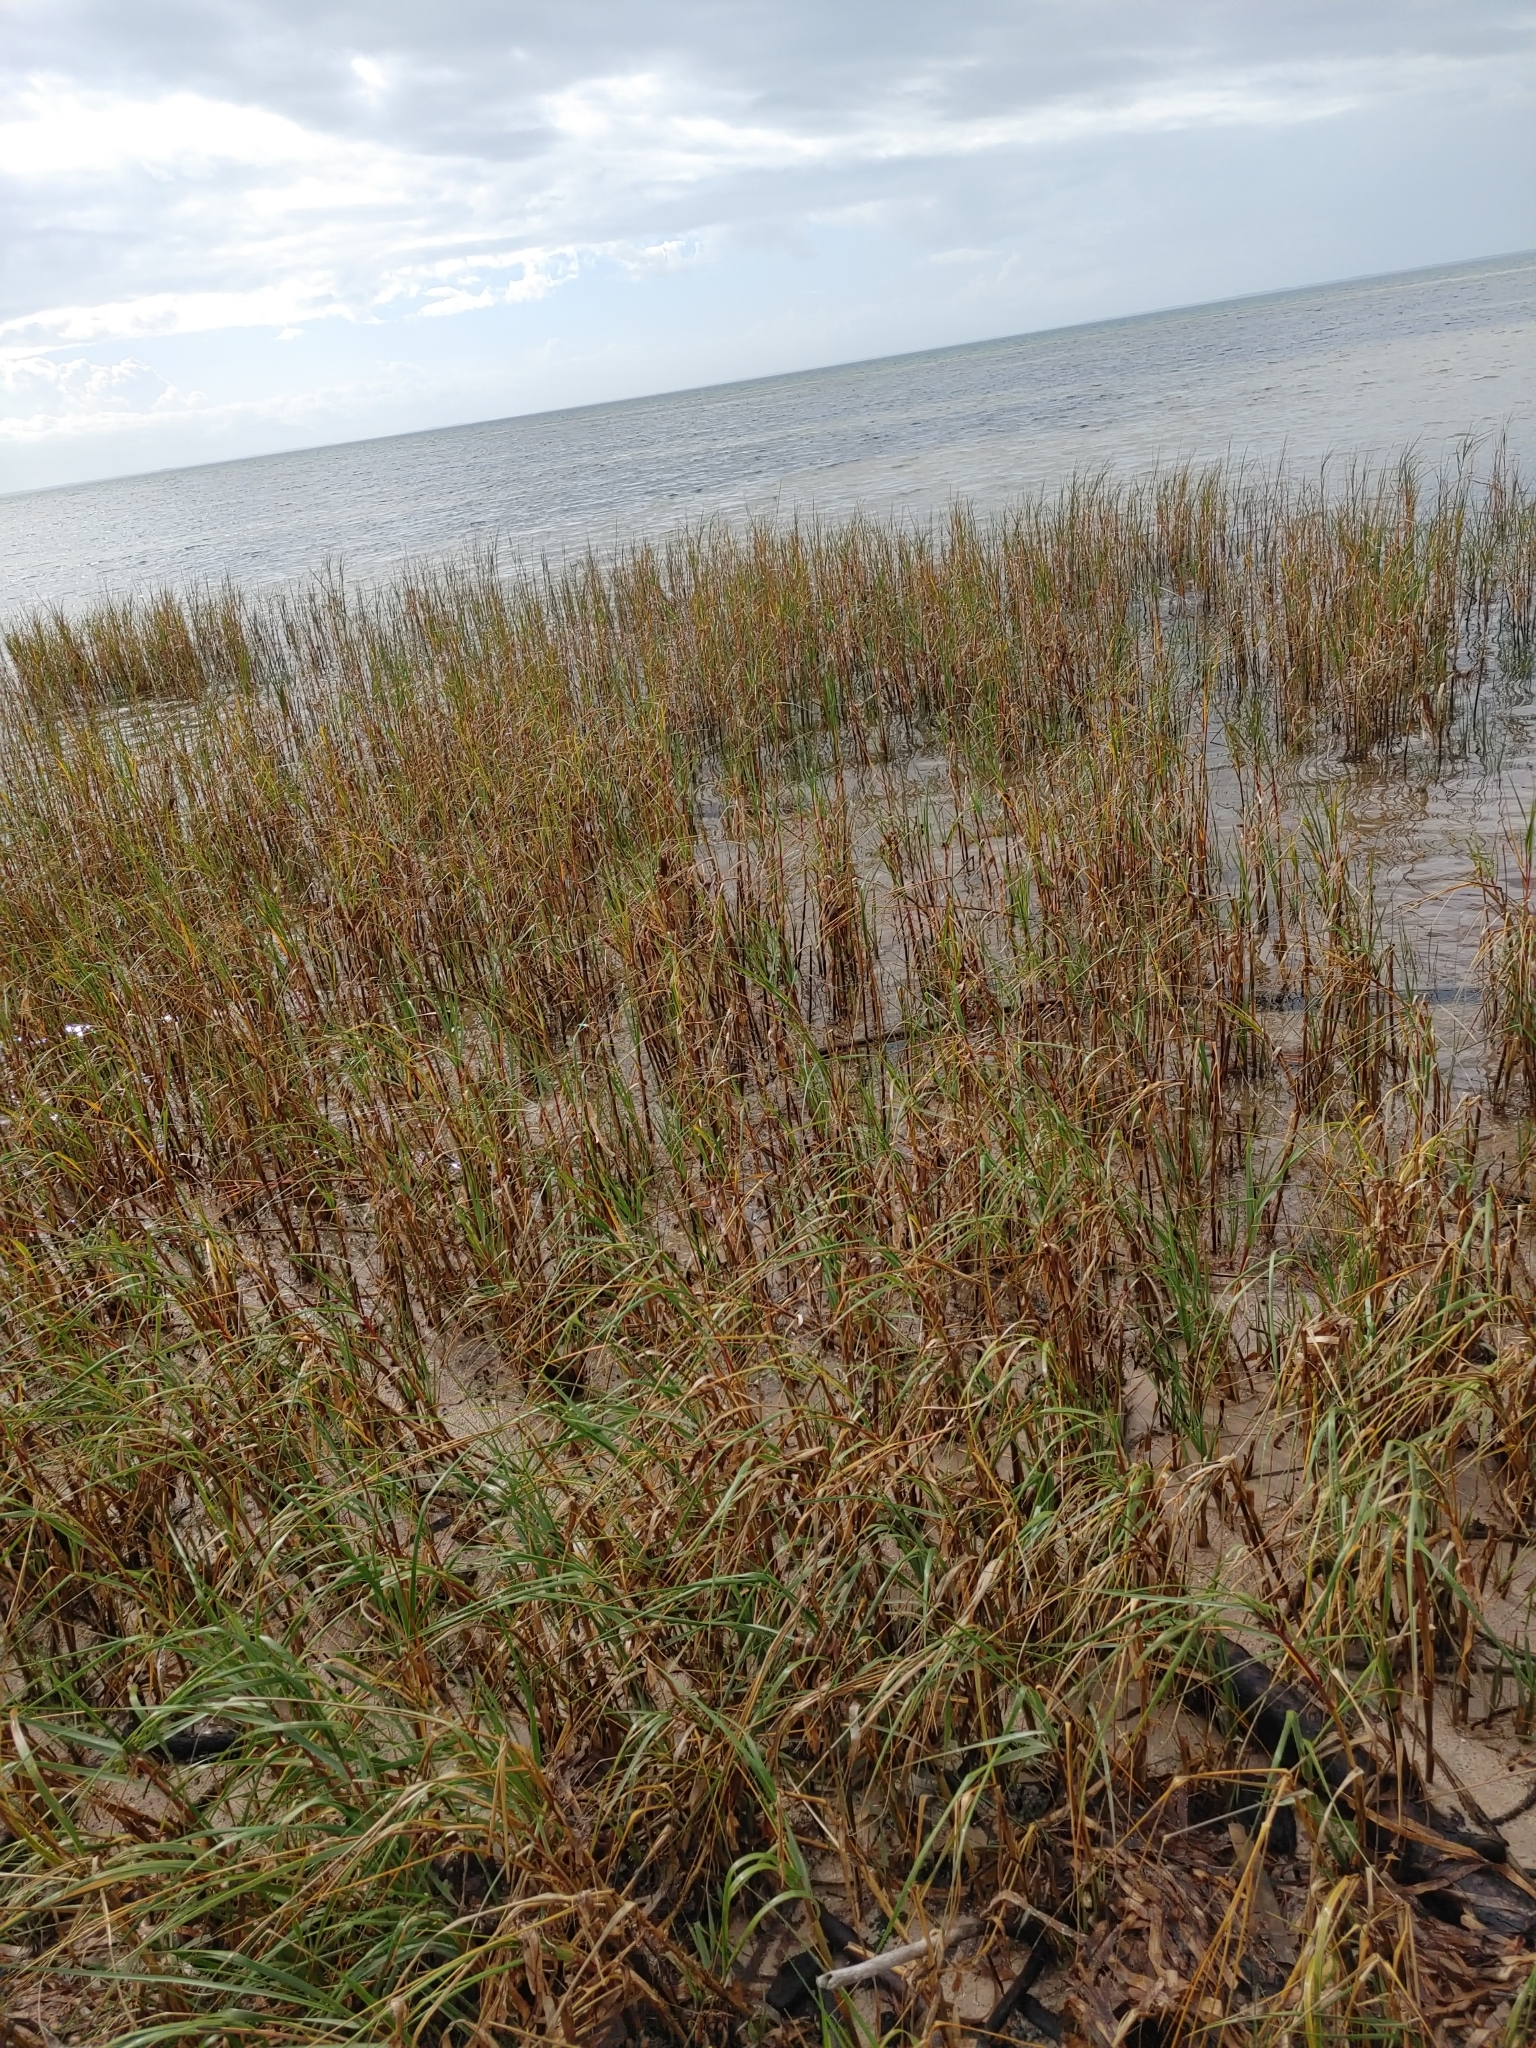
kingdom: Plantae
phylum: Tracheophyta
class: Liliopsida
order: Poales
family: Poaceae
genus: Sporobolus
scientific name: Sporobolus alterniflorus
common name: Atlantic cordgrass
